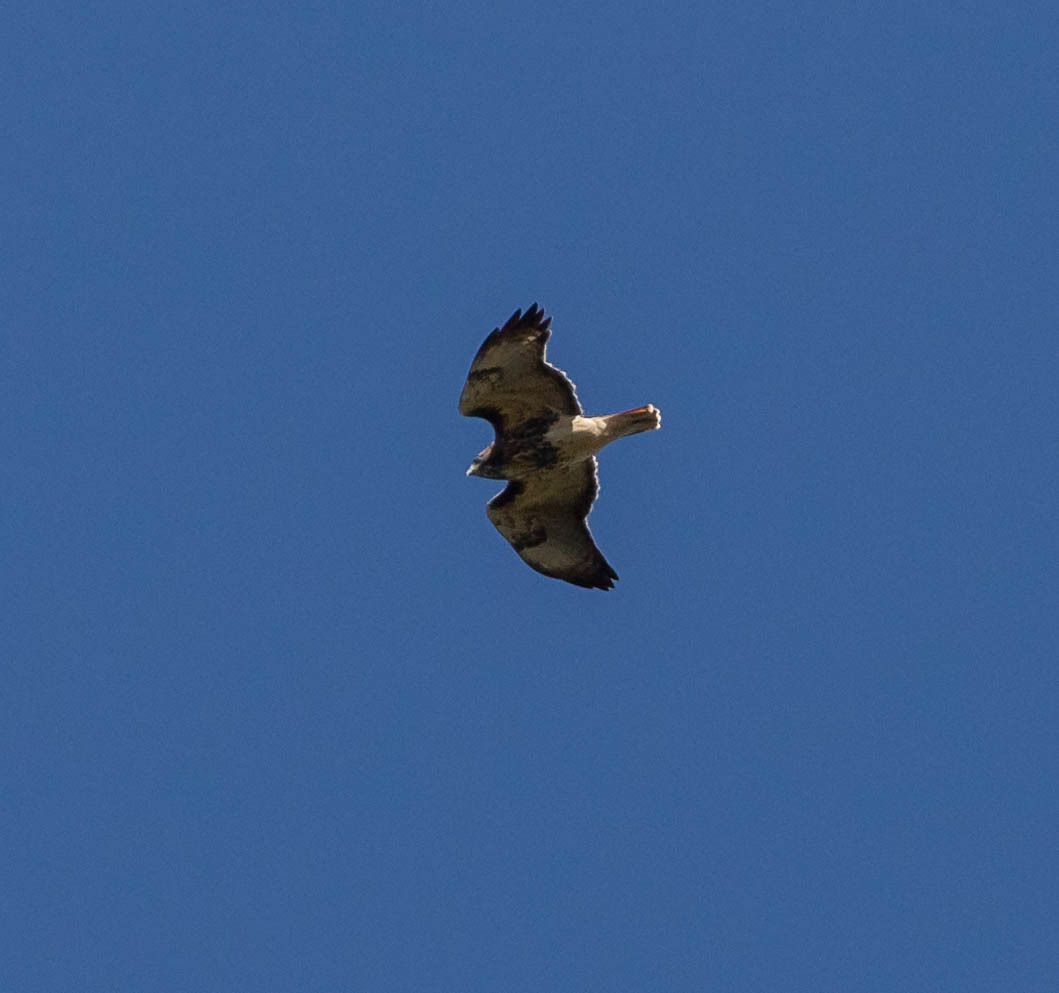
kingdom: Animalia
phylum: Chordata
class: Aves
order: Accipitriformes
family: Accipitridae
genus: Buteo
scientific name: Buteo jamaicensis
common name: Red-tailed hawk
